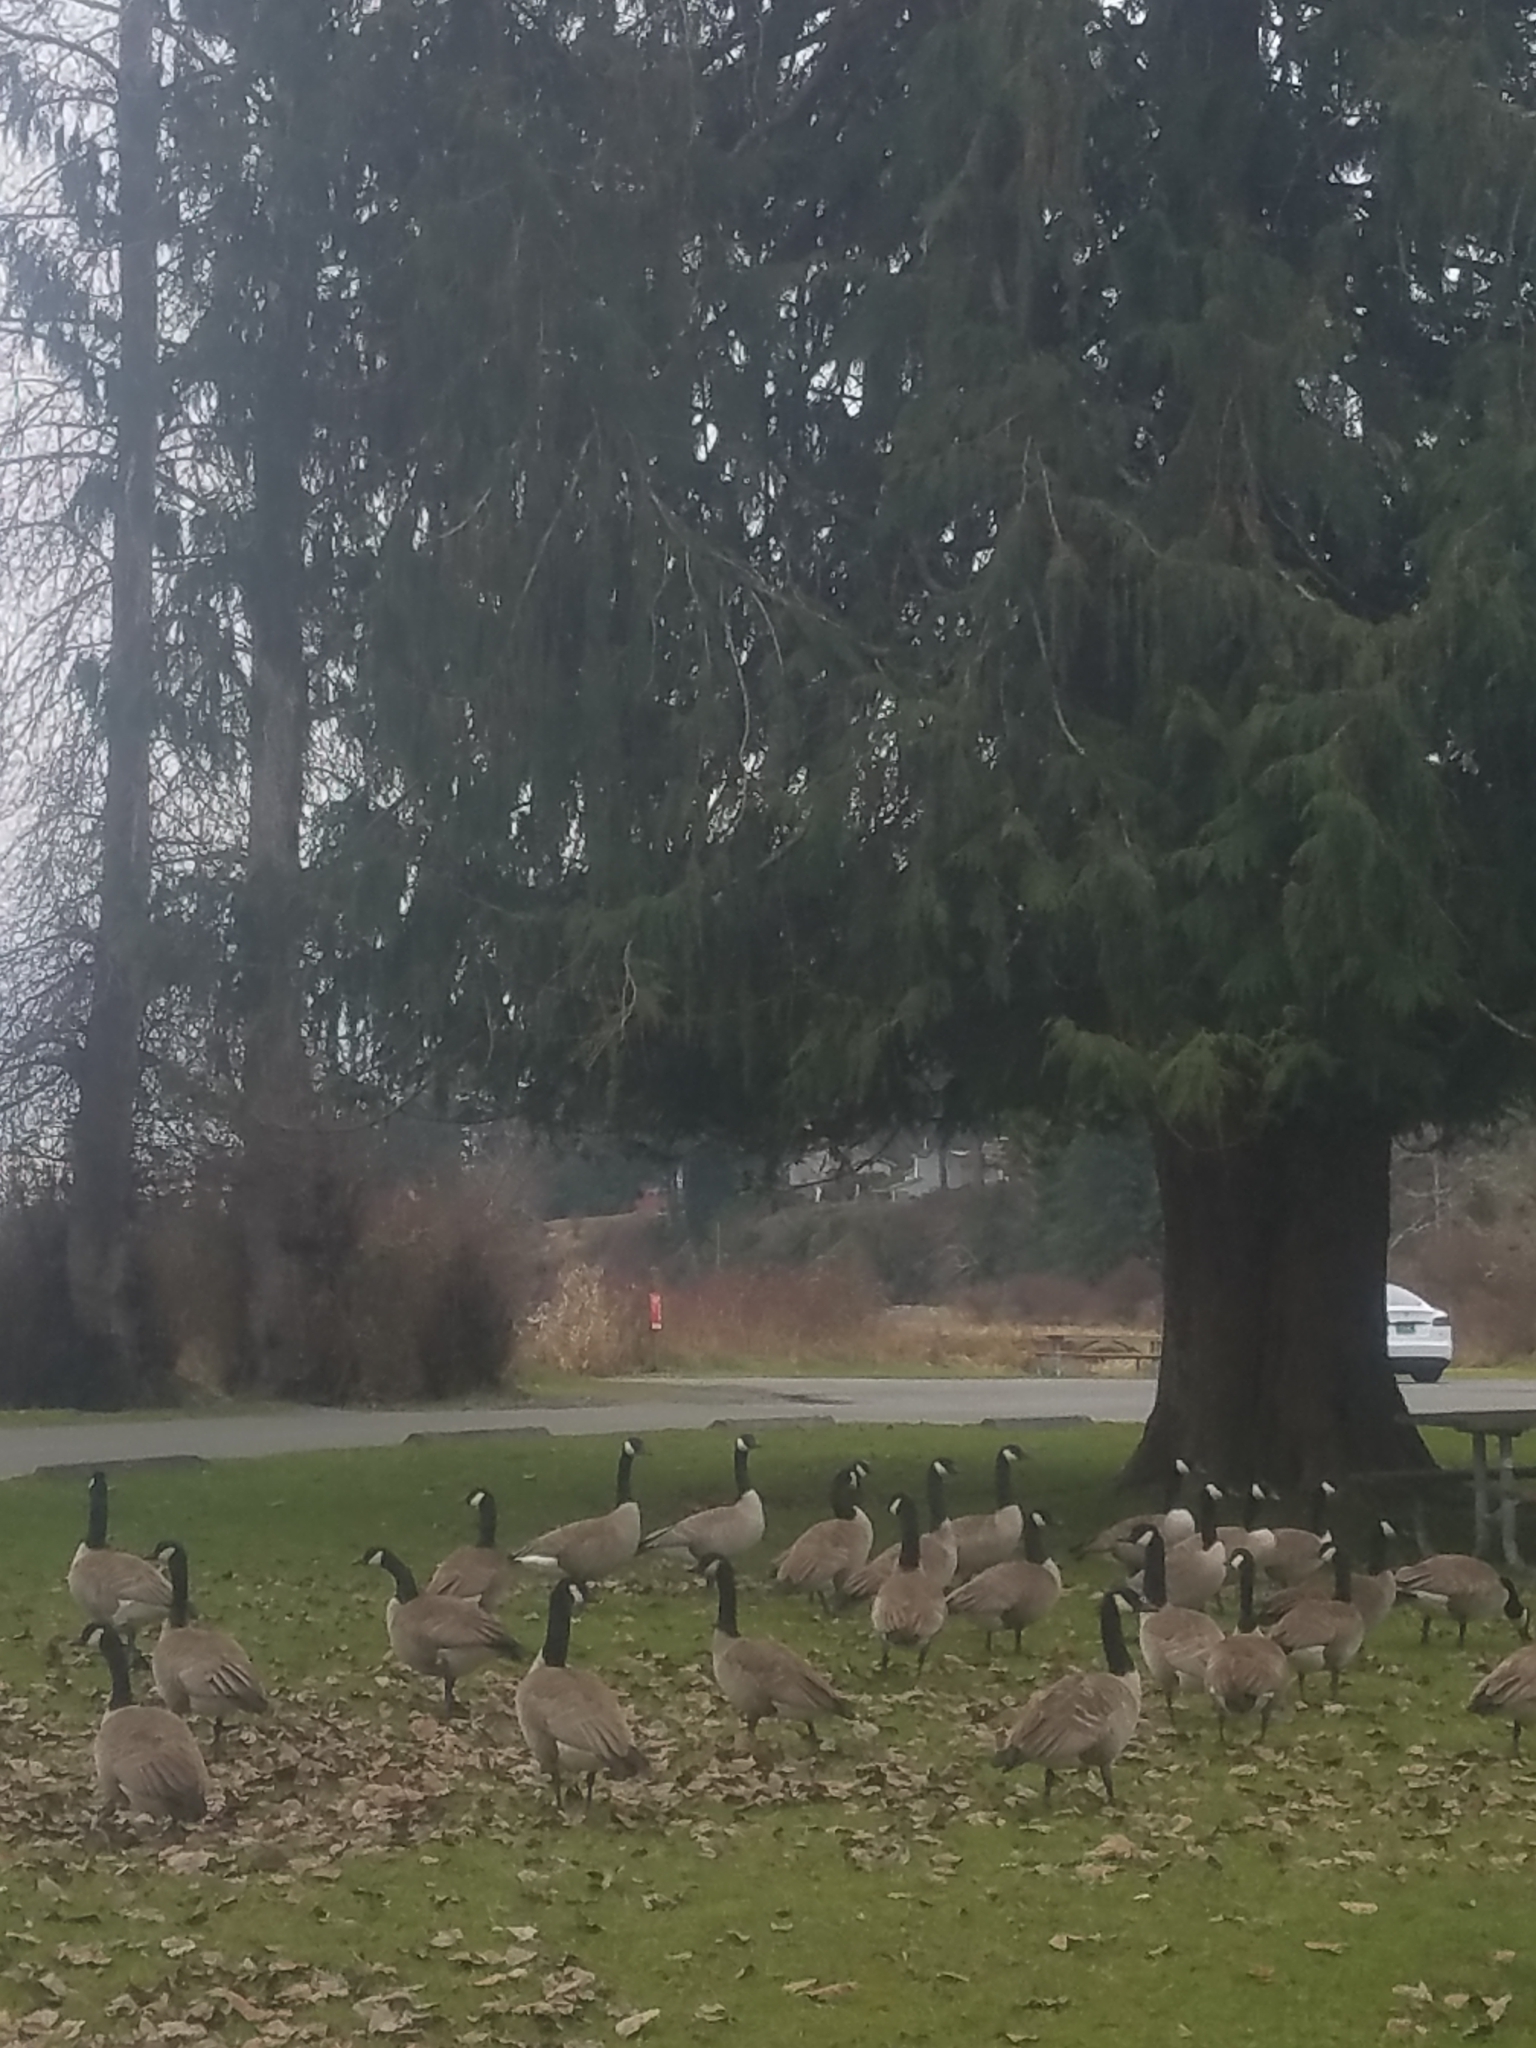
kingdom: Animalia
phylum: Chordata
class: Aves
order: Anseriformes
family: Anatidae
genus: Branta
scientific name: Branta canadensis
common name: Canada goose
